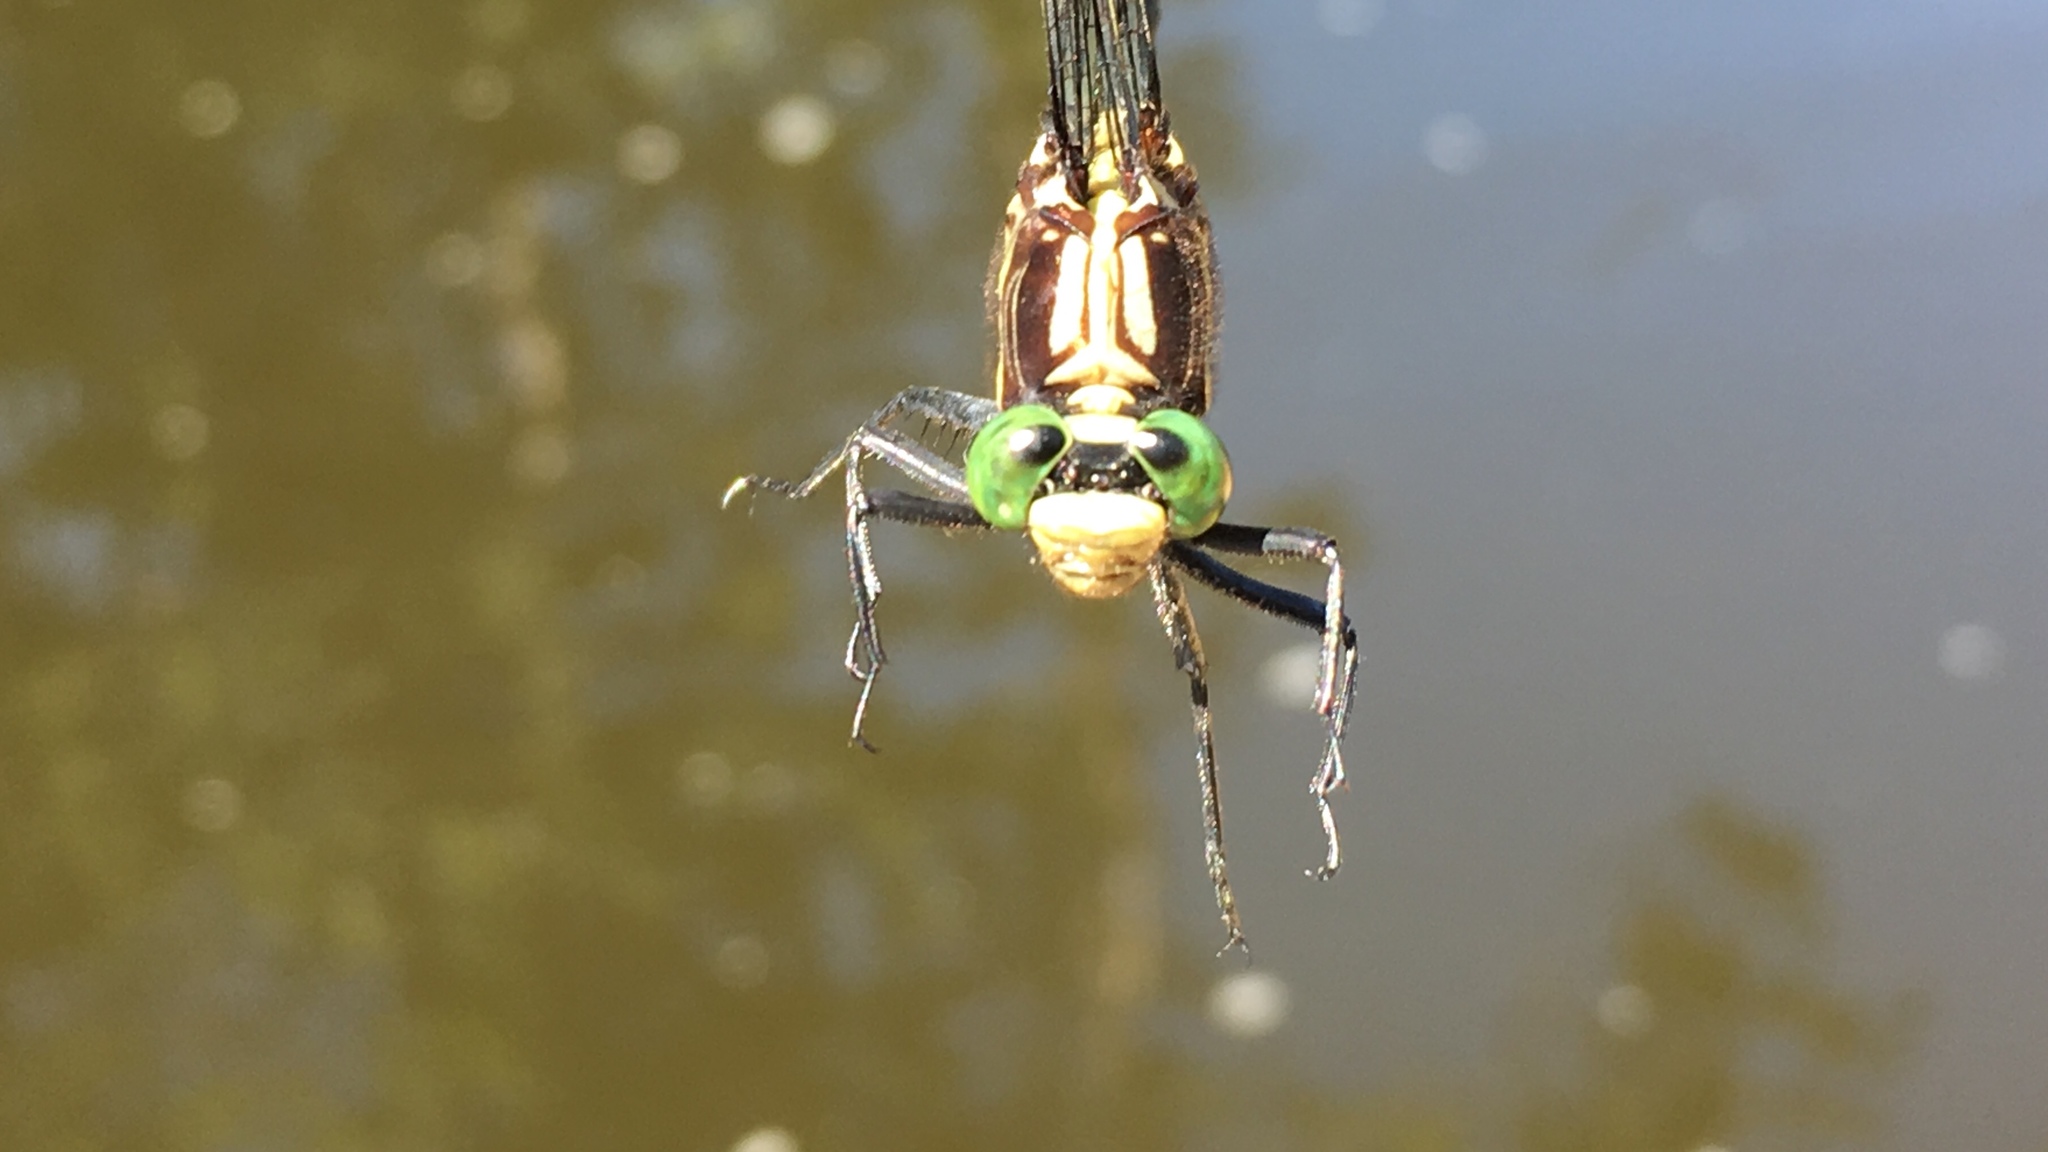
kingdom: Animalia
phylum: Arthropoda
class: Insecta
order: Odonata
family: Gomphidae
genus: Dromogomphus
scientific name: Dromogomphus spinosus
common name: Black-shouldered spinyleg
